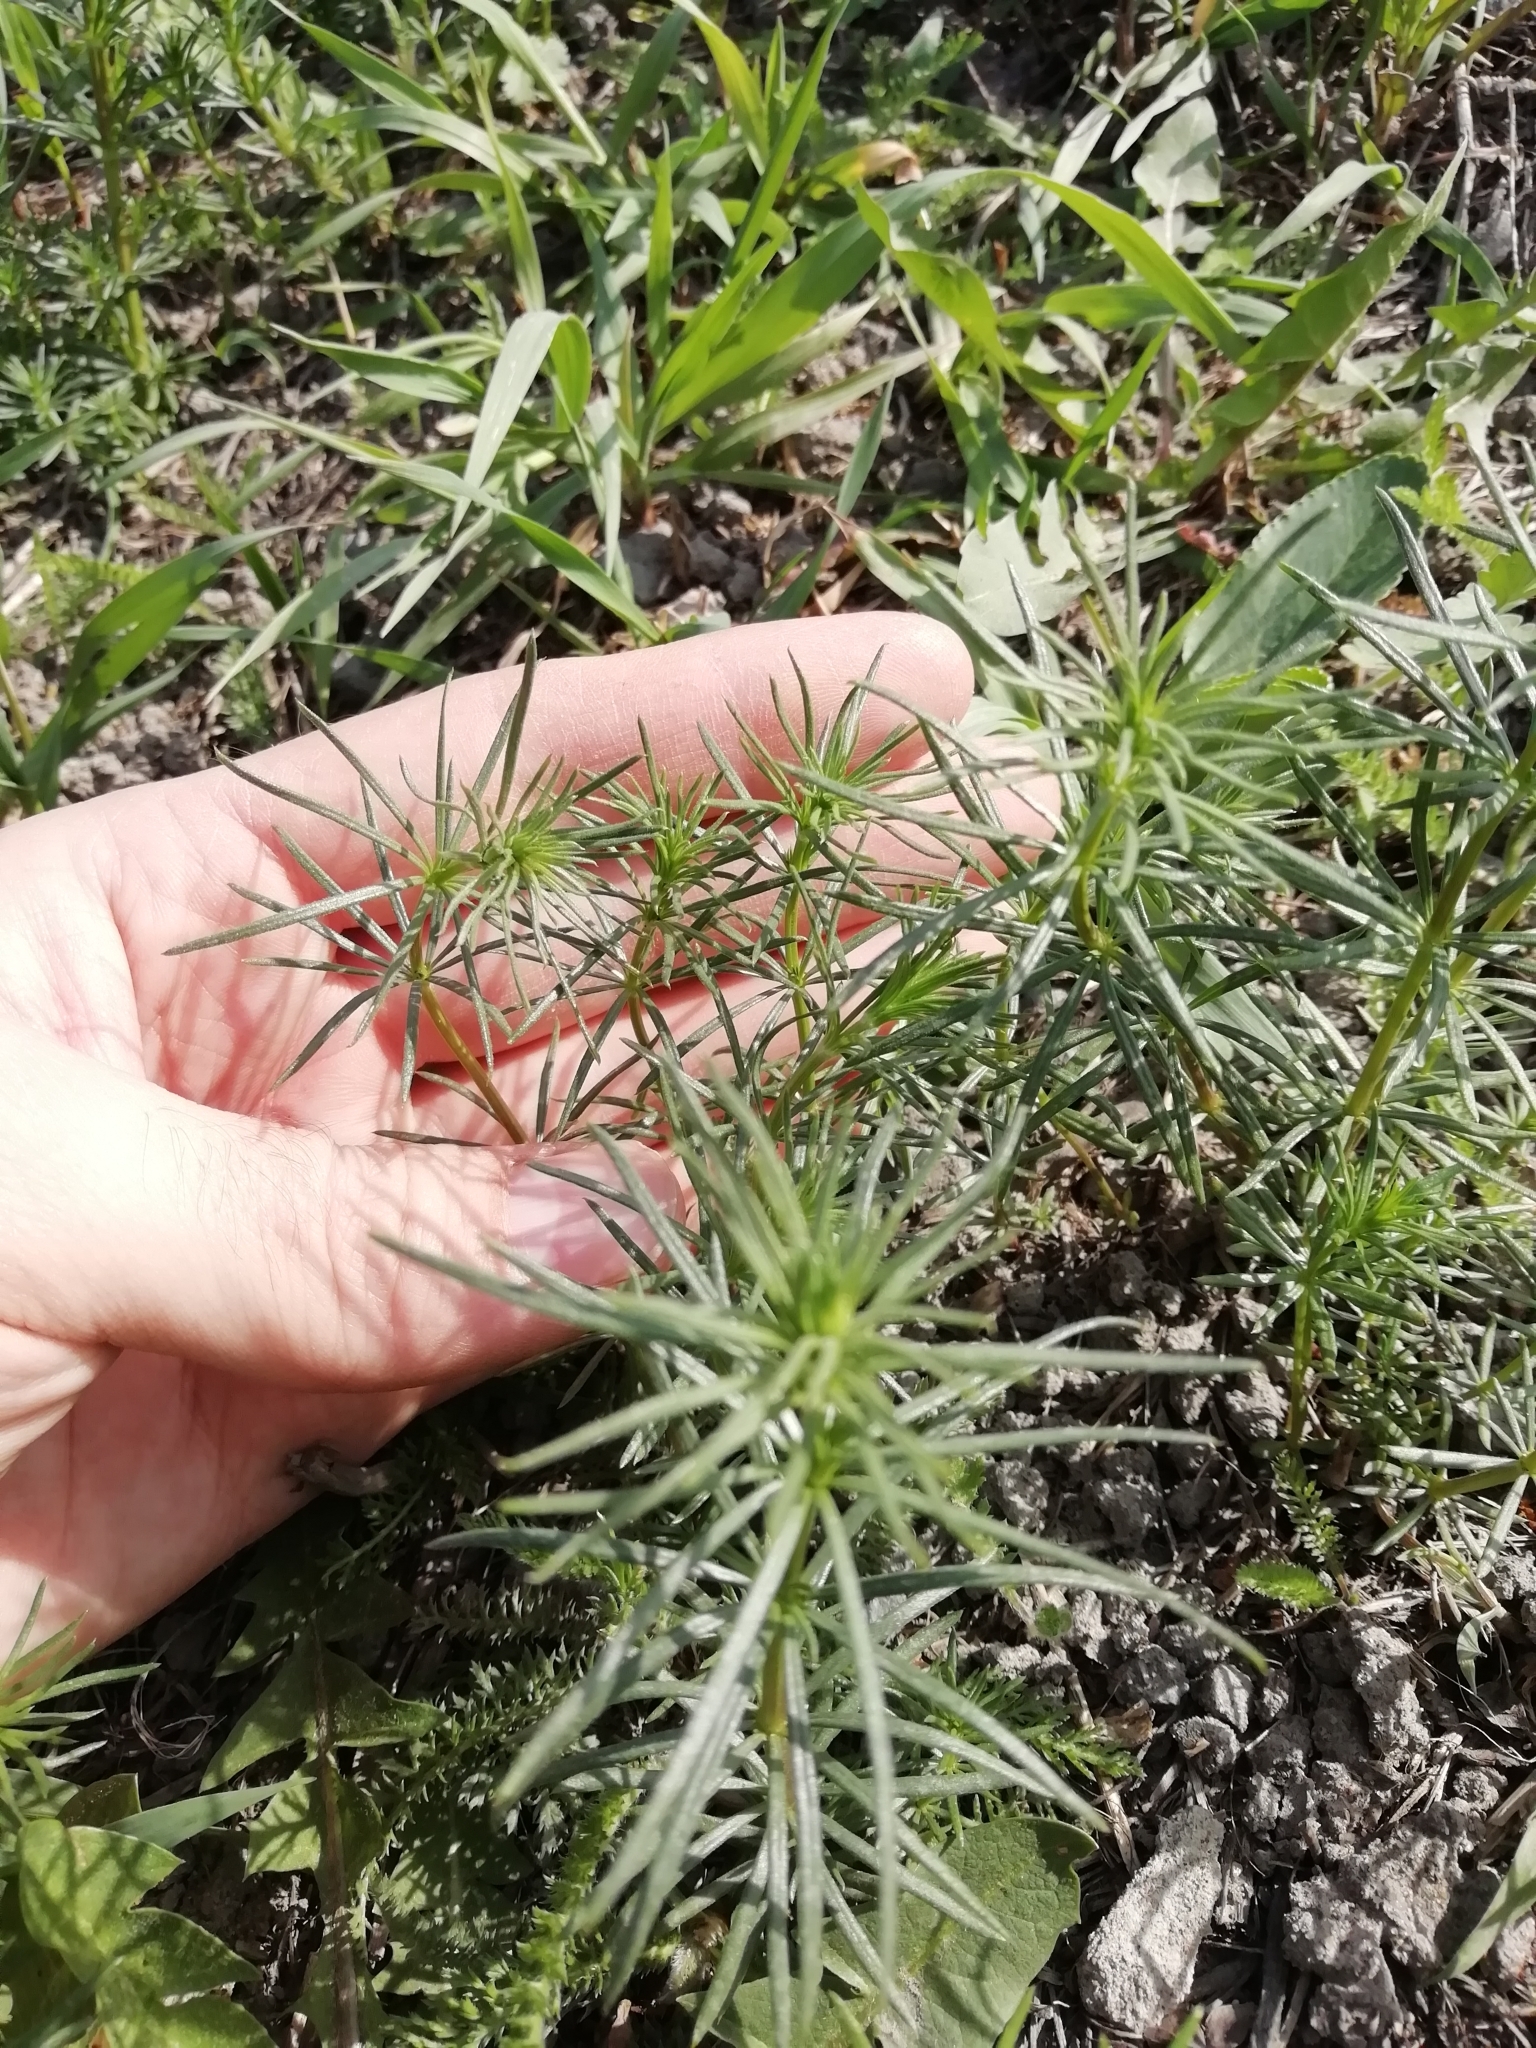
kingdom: Plantae
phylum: Tracheophyta
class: Magnoliopsida
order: Gentianales
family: Rubiaceae
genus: Galium
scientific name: Galium verum
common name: Lady's bedstraw
